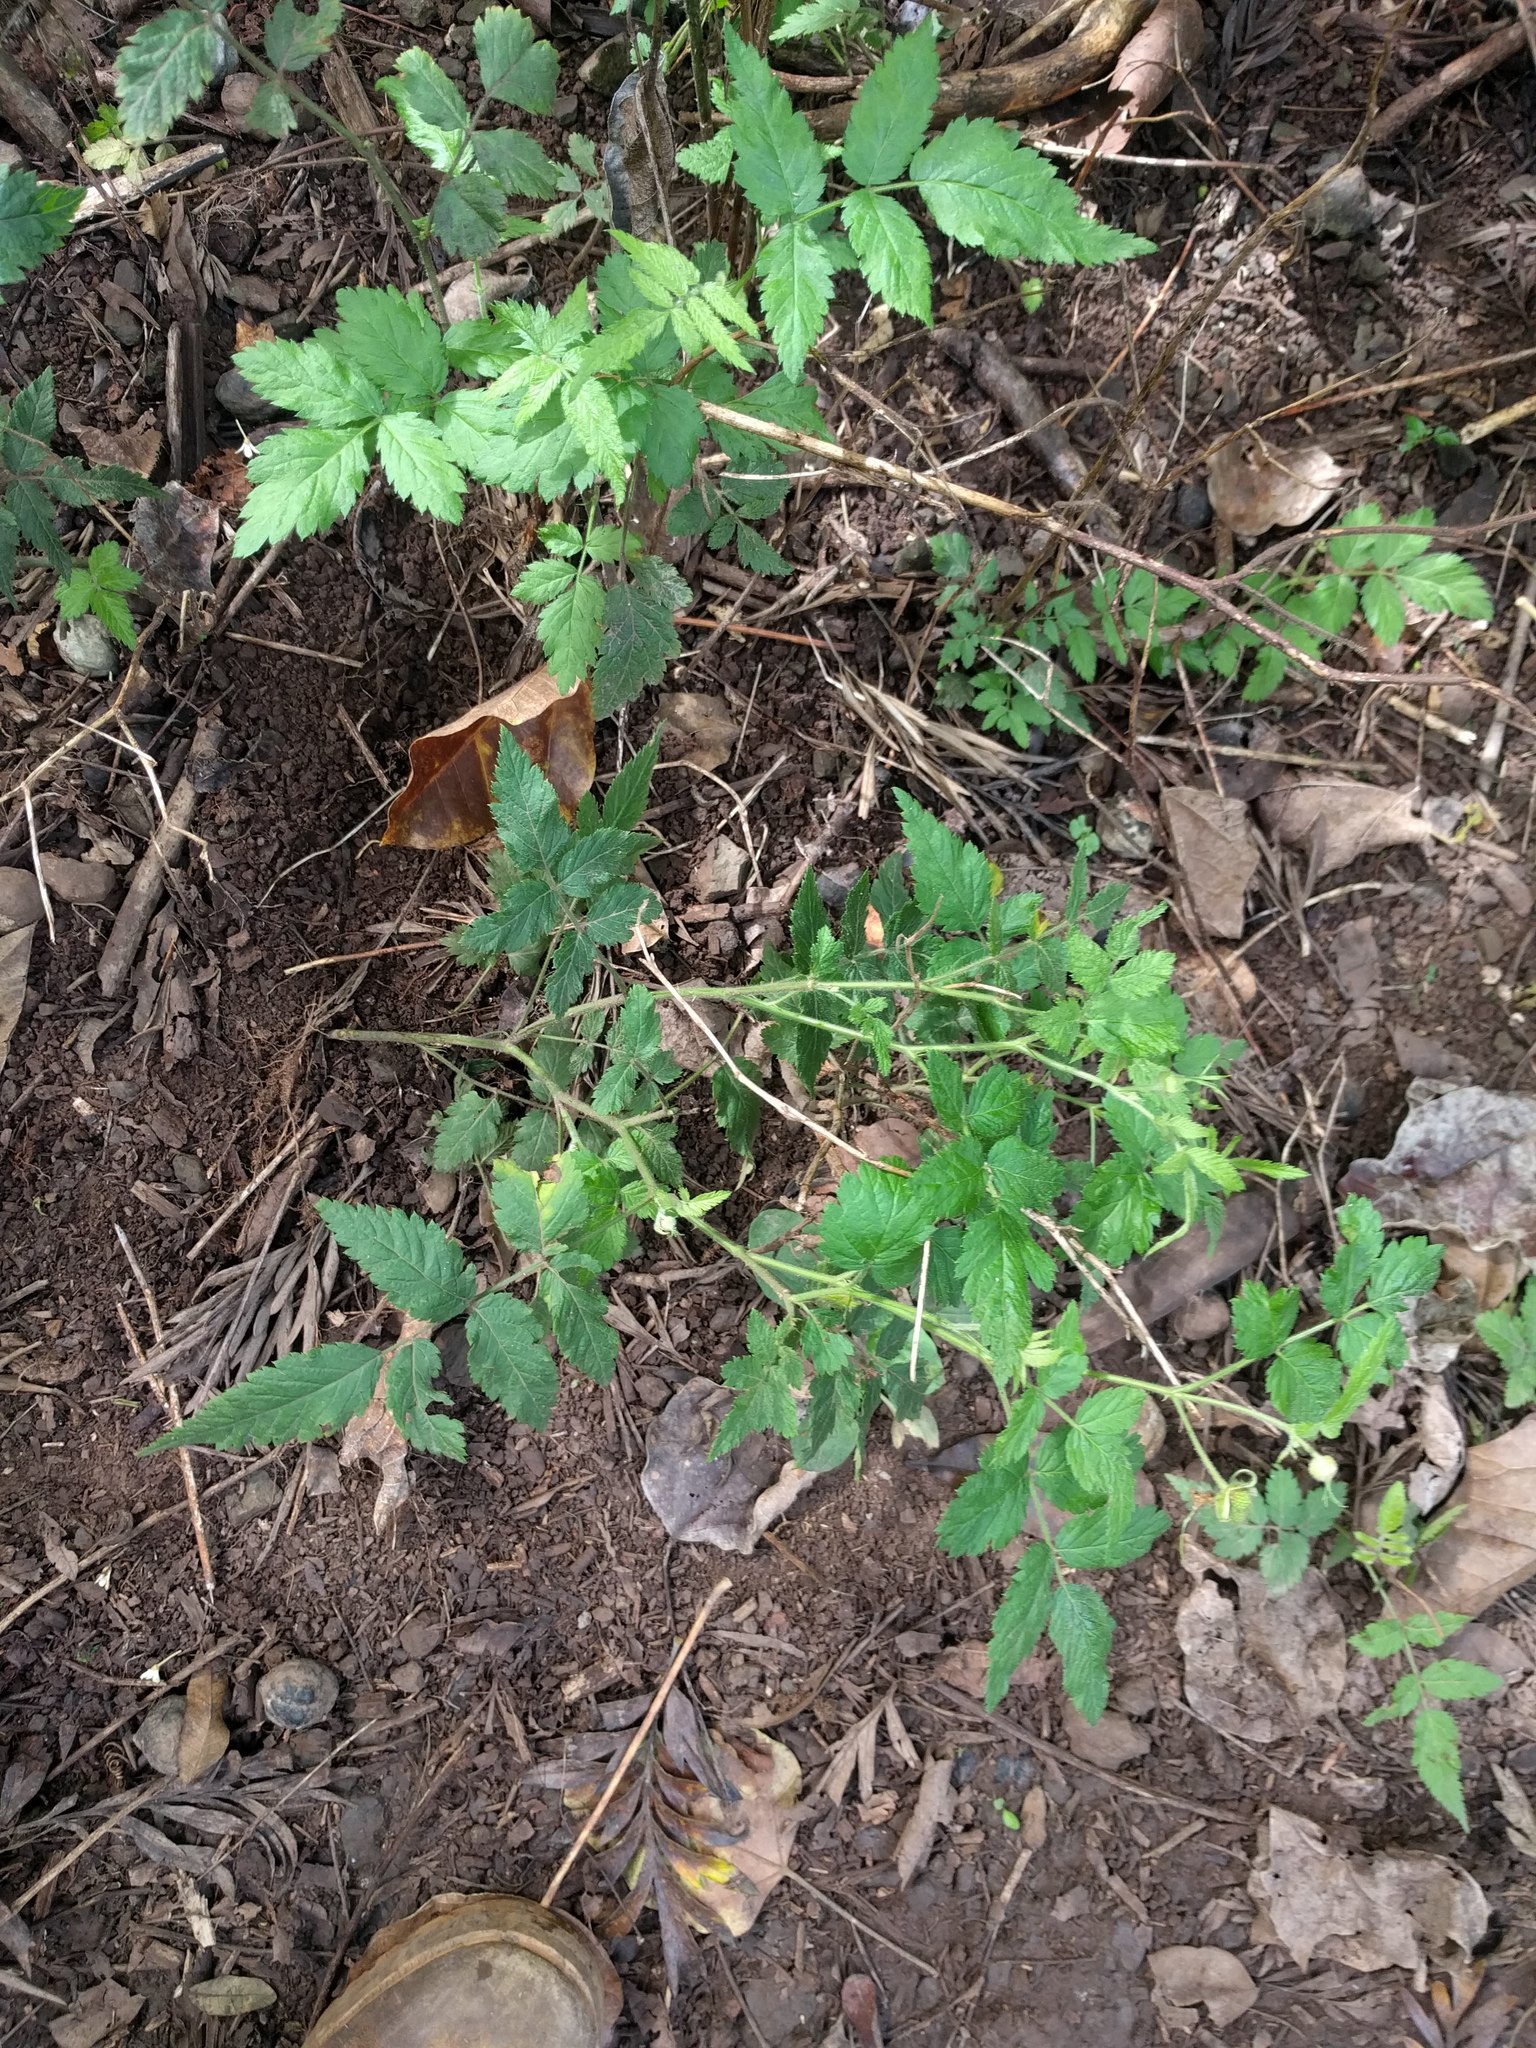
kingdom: Plantae
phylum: Tracheophyta
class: Magnoliopsida
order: Rosales
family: Rosaceae
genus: Rubus
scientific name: Rubus rosifolius
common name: Roseleaf raspberry
